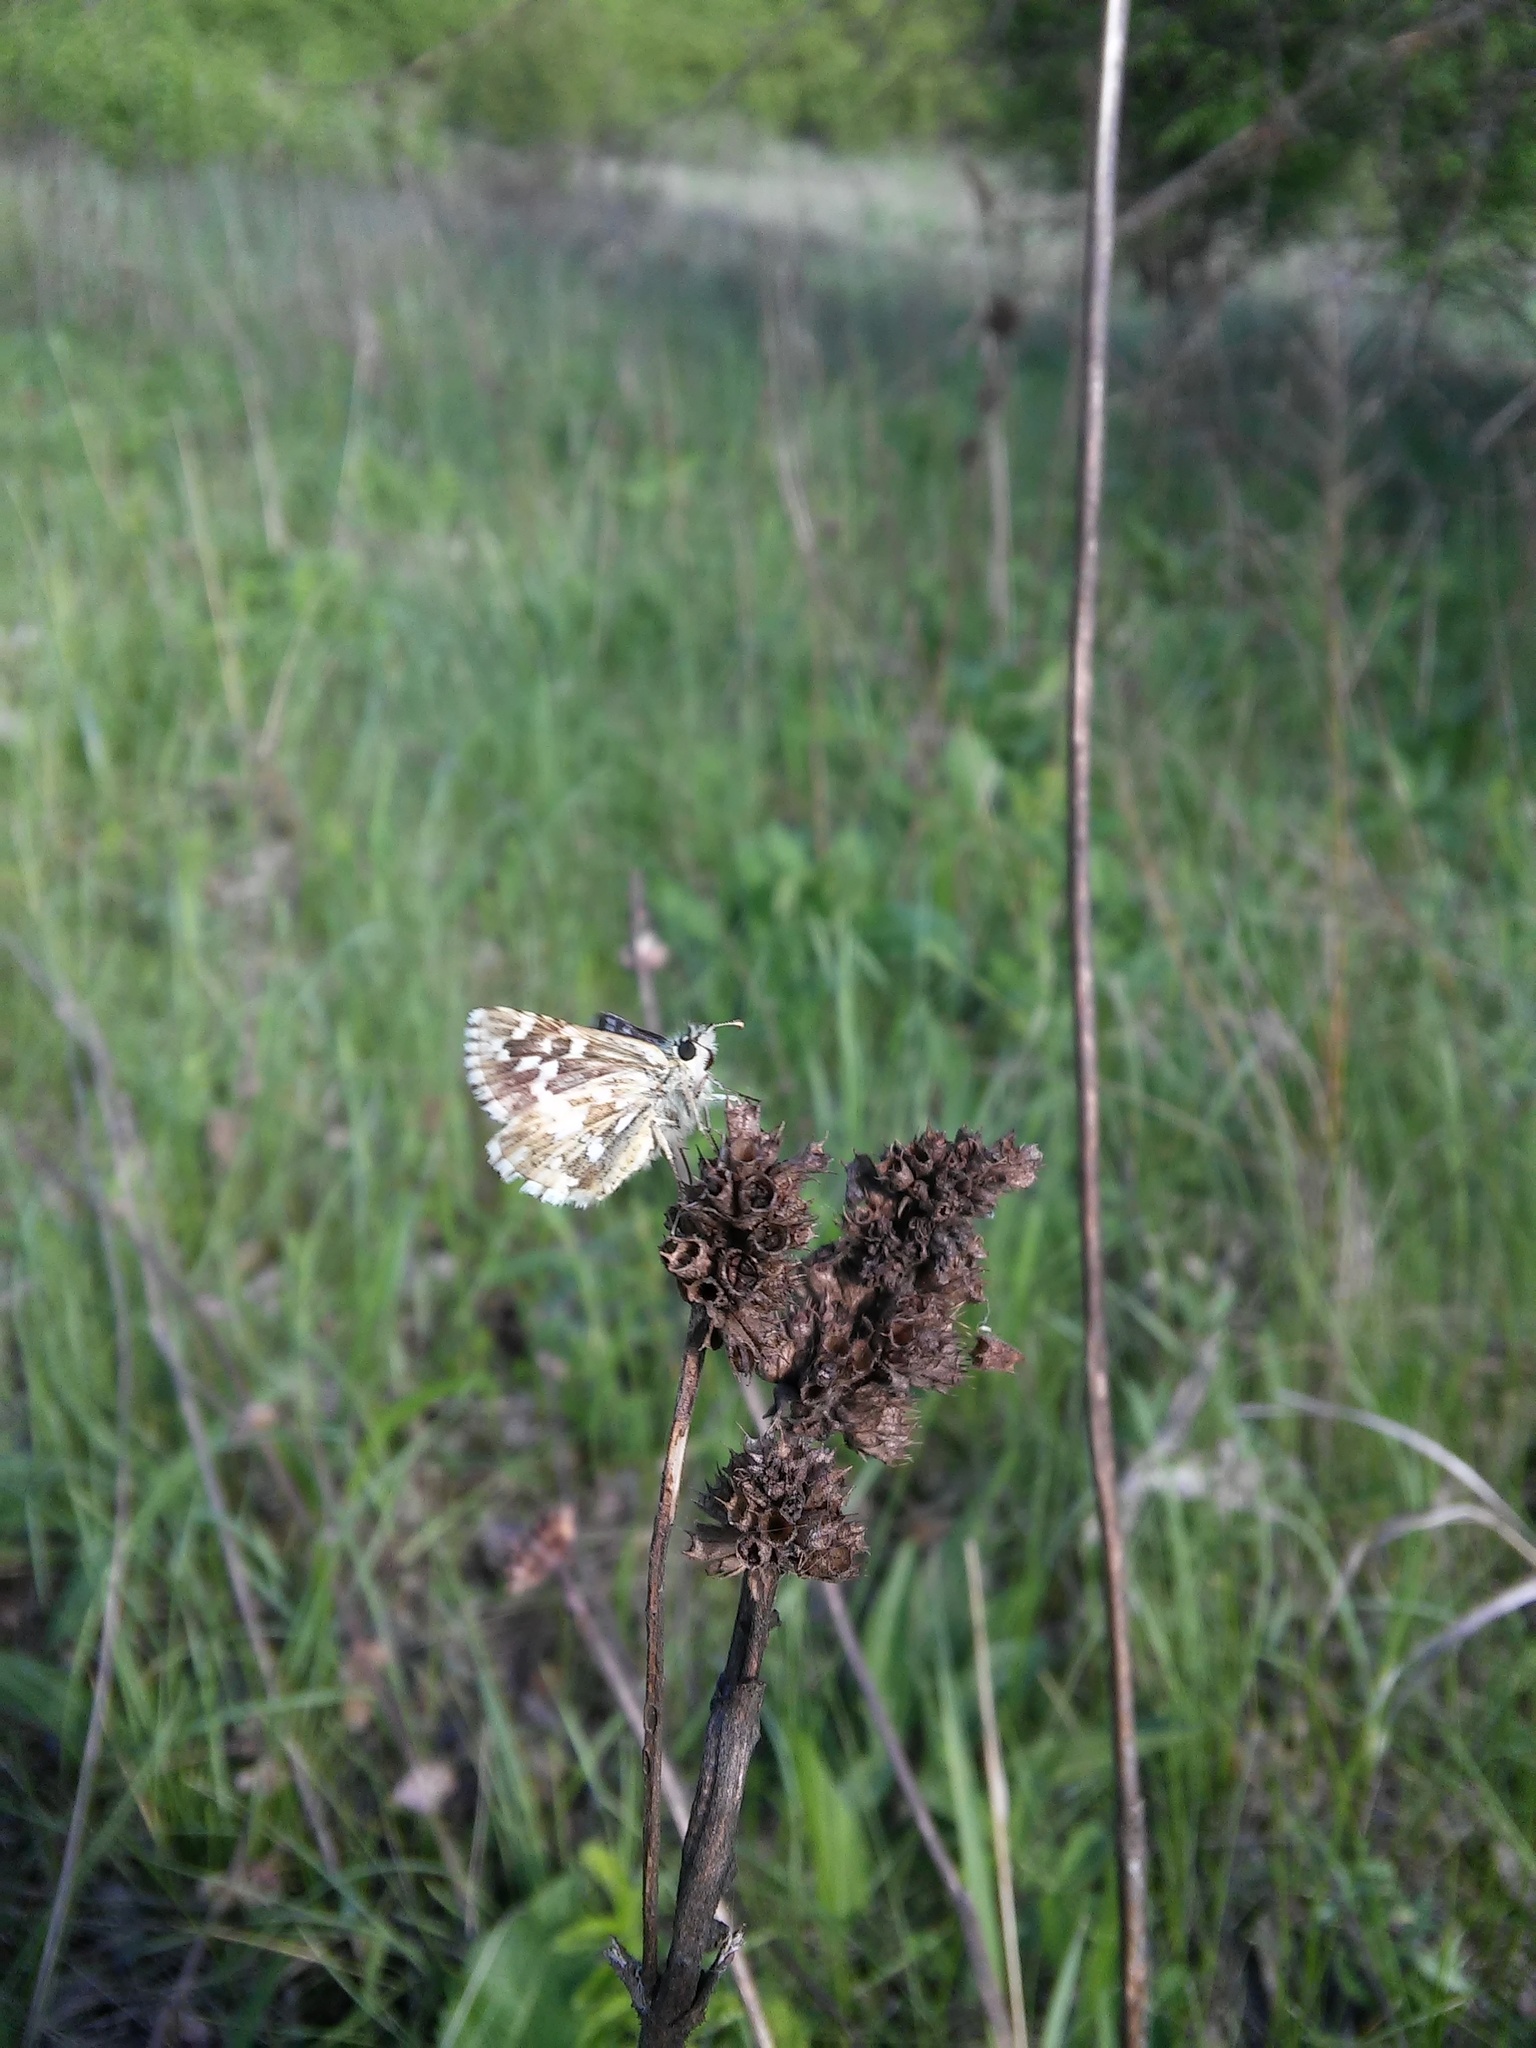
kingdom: Animalia
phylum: Arthropoda
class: Insecta
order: Lepidoptera
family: Hesperiidae
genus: Pyrgus
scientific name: Pyrgus malvae
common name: Grizzled skipper
